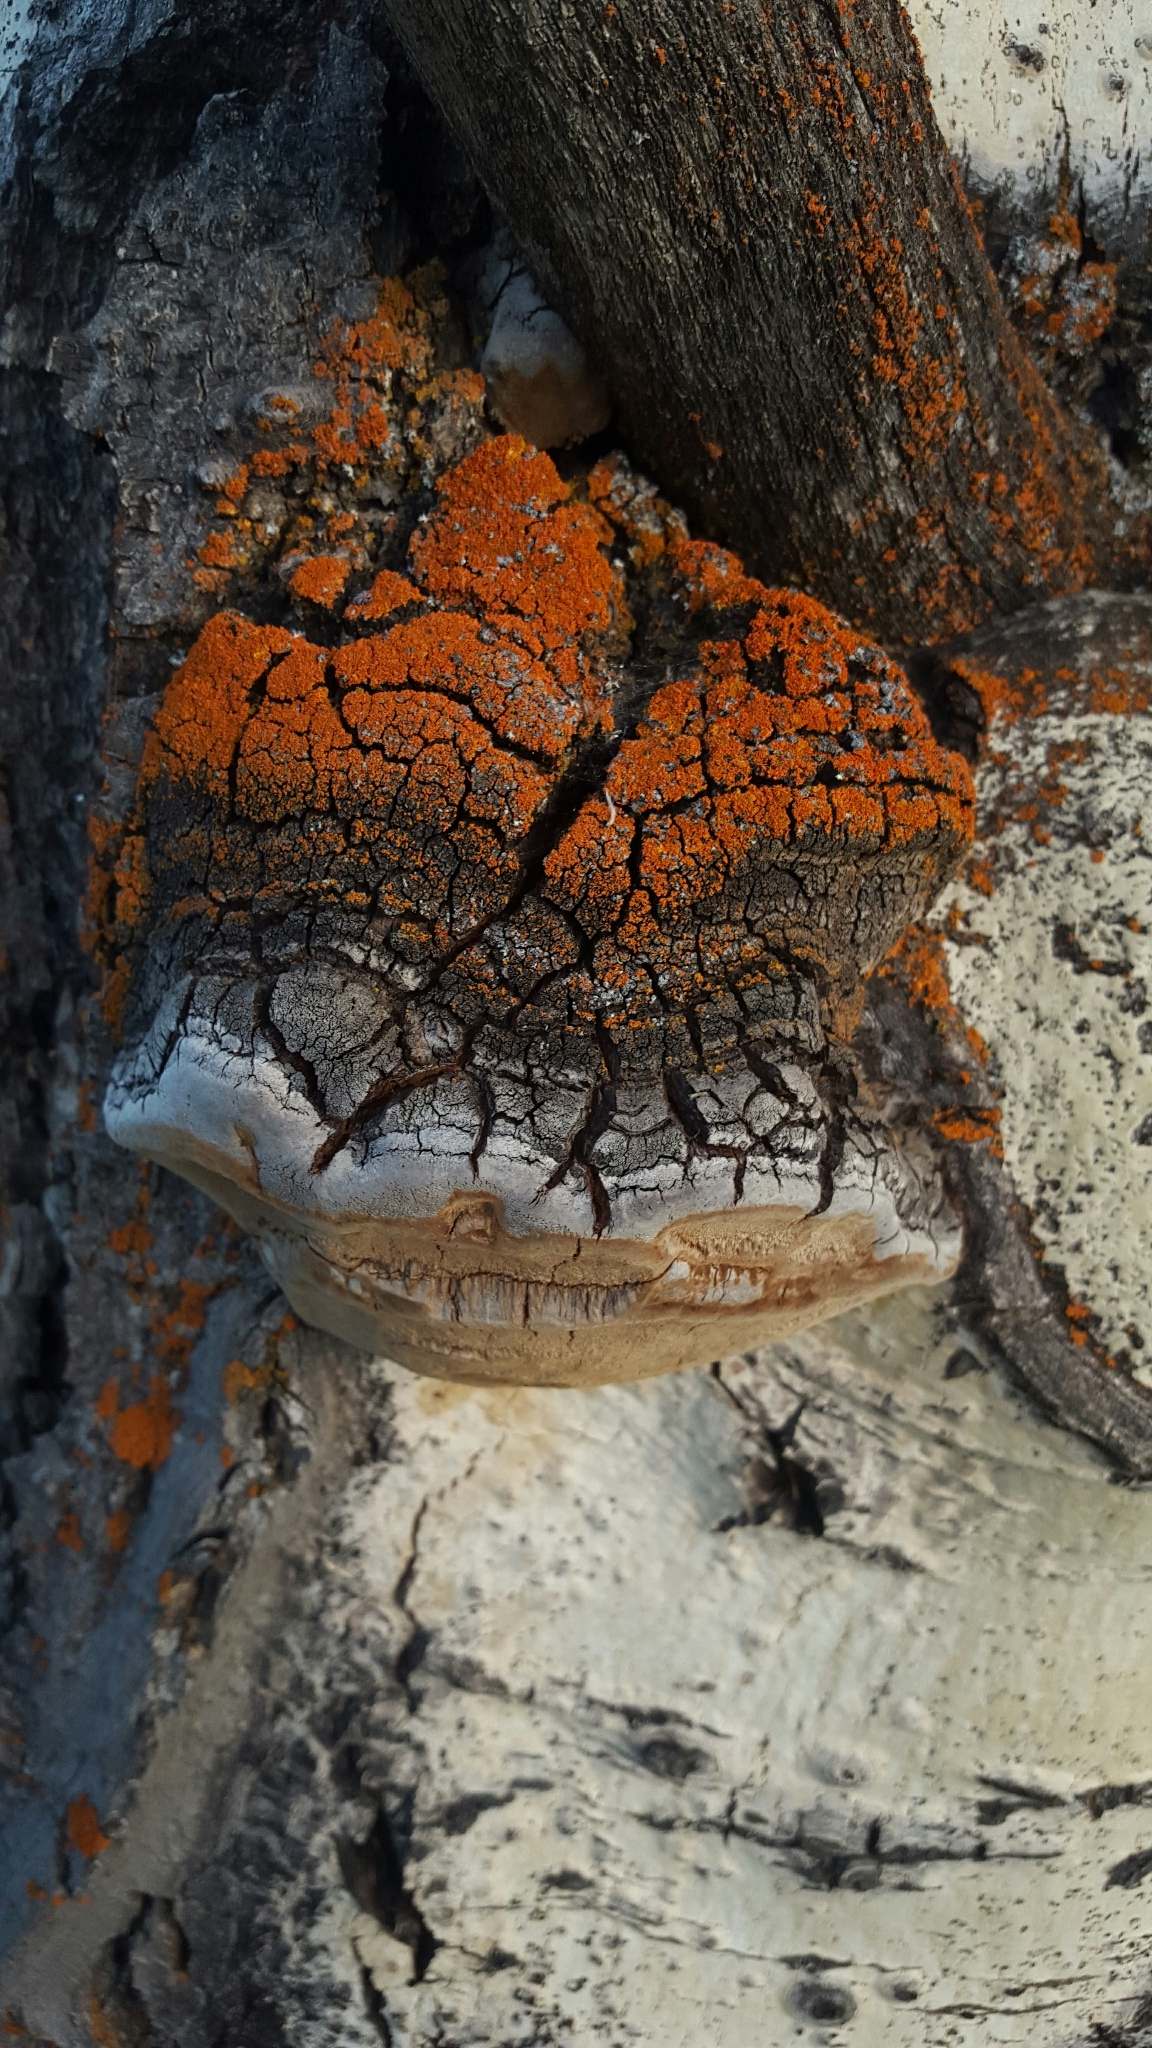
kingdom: Fungi
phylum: Basidiomycota
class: Agaricomycetes
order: Hymenochaetales
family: Hymenochaetaceae
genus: Phellinus
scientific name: Phellinus tremulae
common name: Aspen bracket
